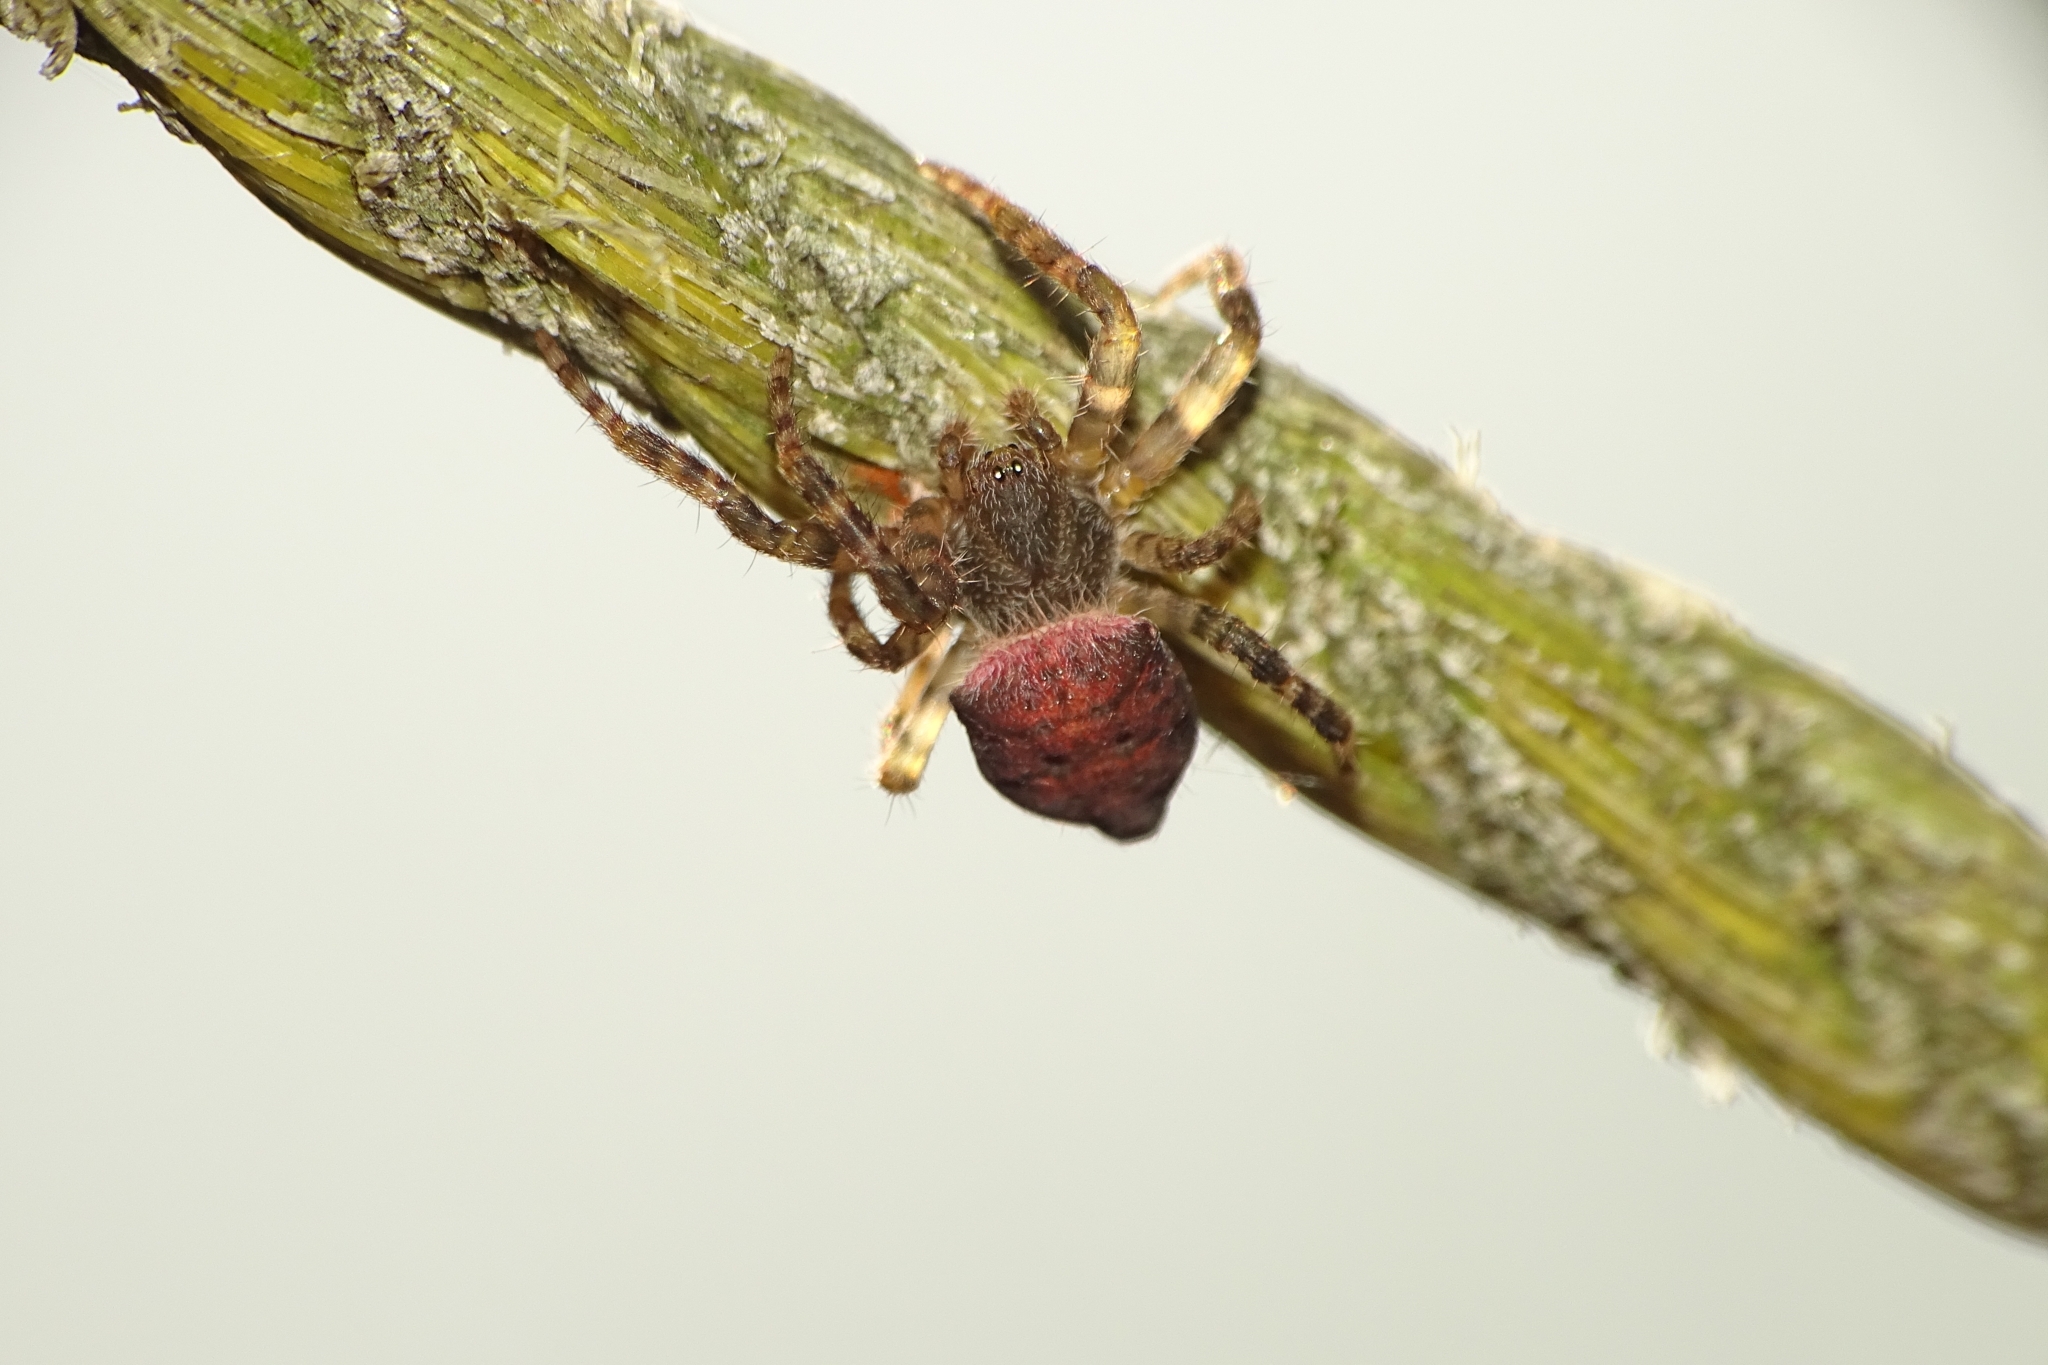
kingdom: Animalia
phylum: Arthropoda
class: Arachnida
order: Araneae
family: Araneidae
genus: Cyrtophora
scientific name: Cyrtophora unicolor
